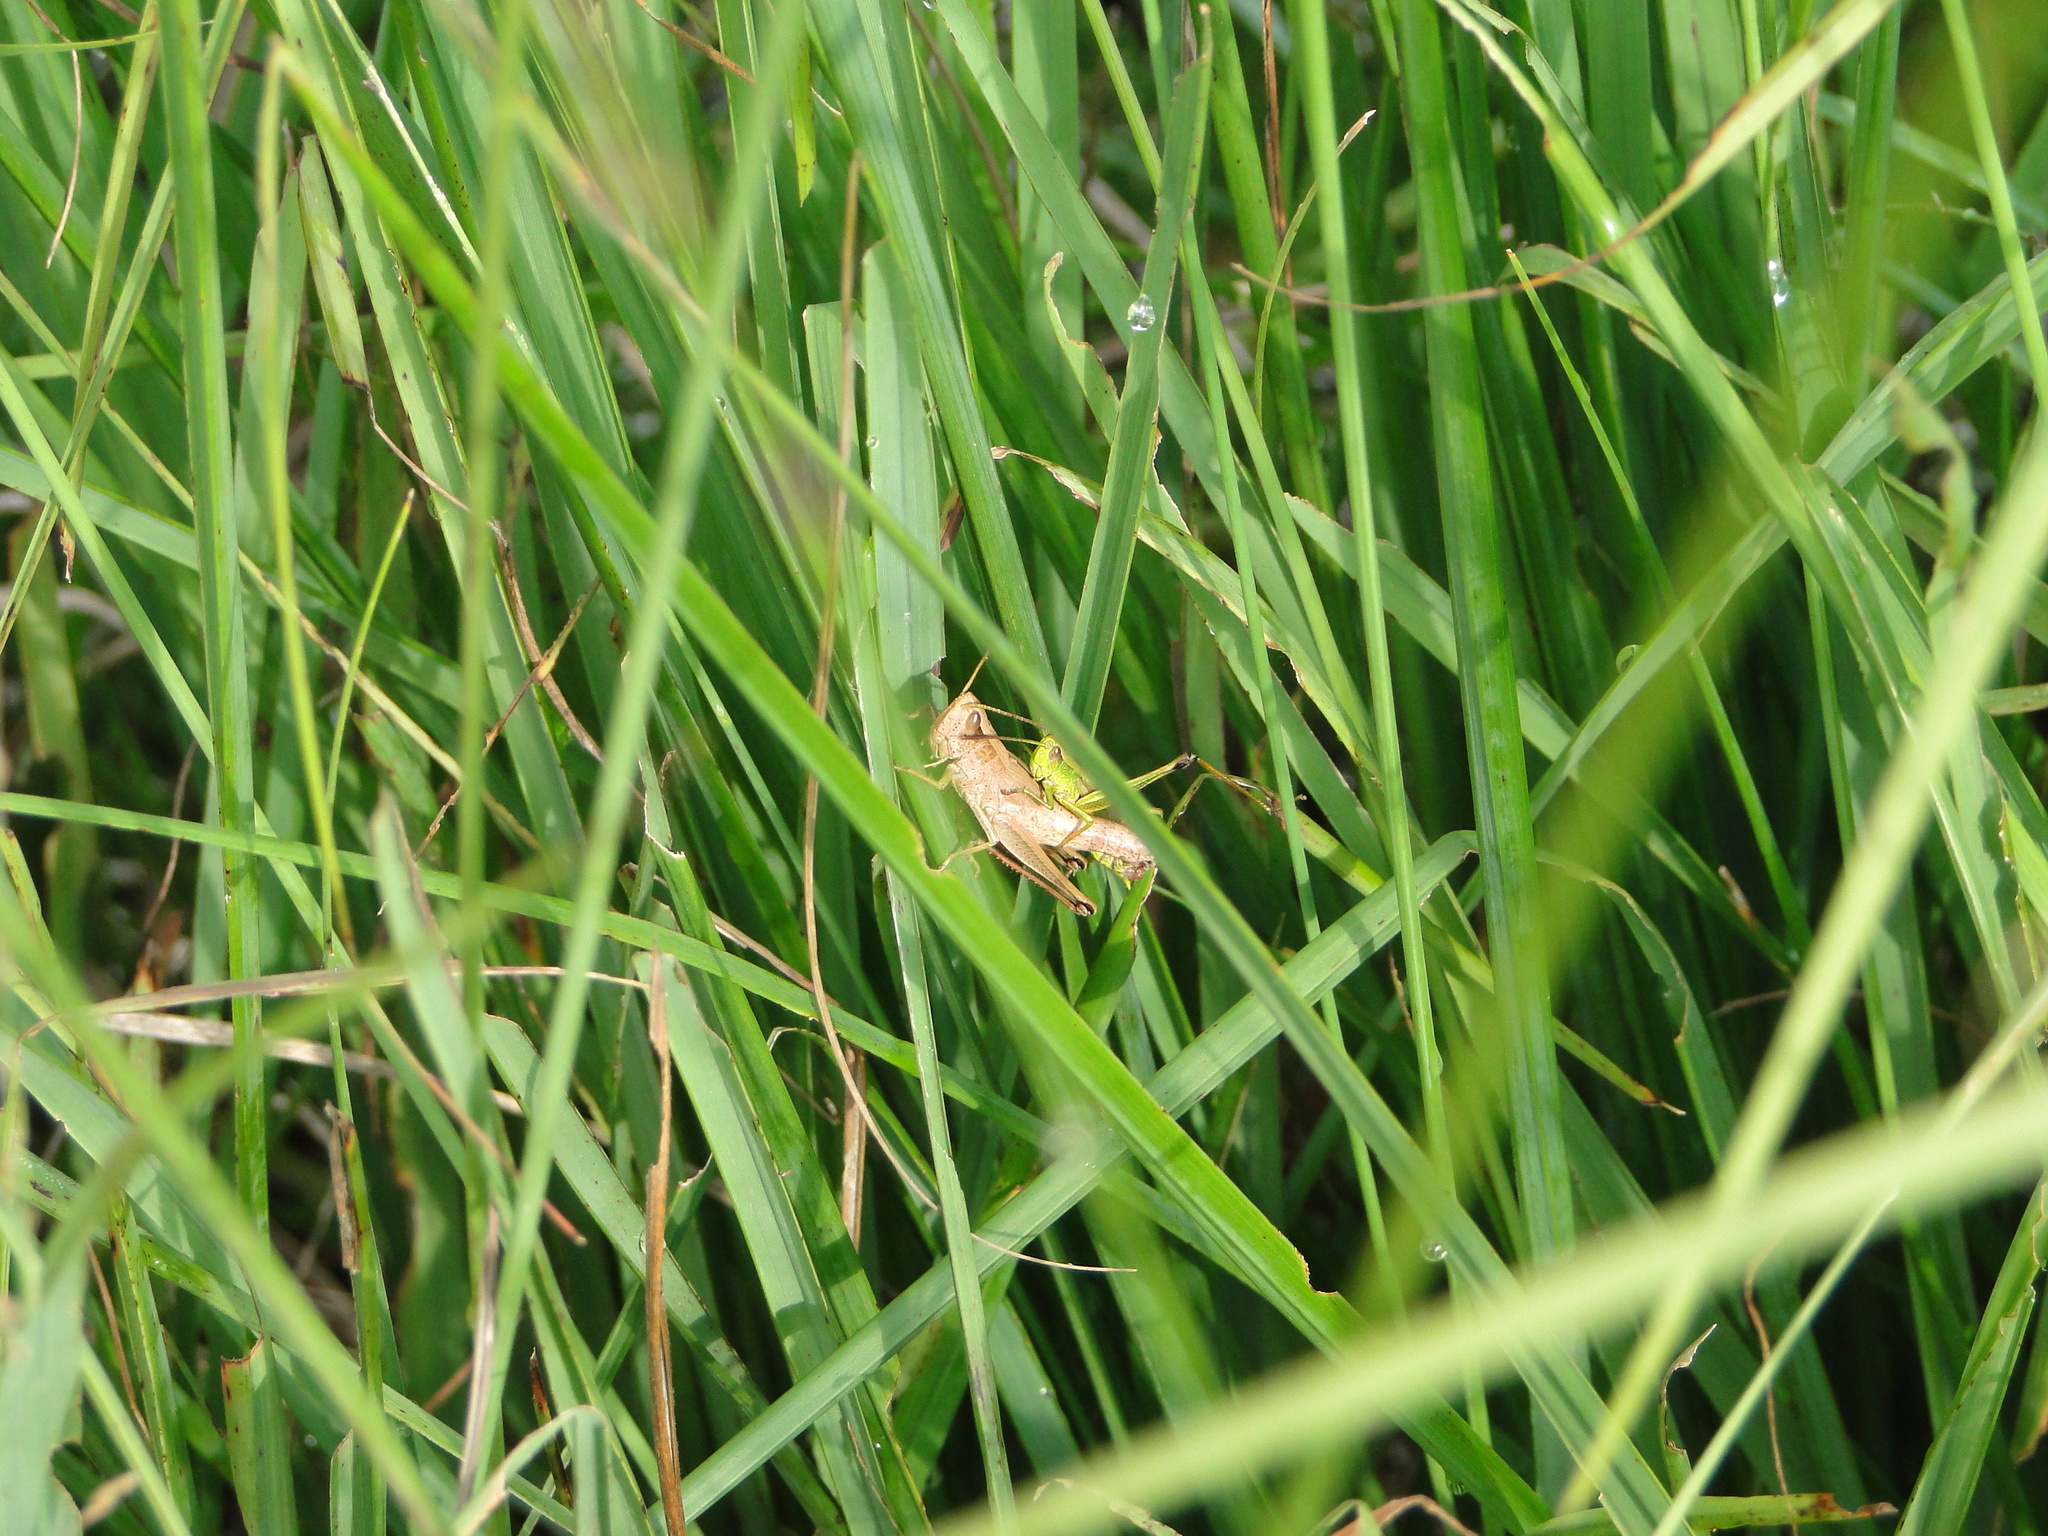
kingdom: Animalia
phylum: Arthropoda
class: Insecta
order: Orthoptera
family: Acrididae
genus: Chrysochraon
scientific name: Chrysochraon dispar
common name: Large gold grasshopper
